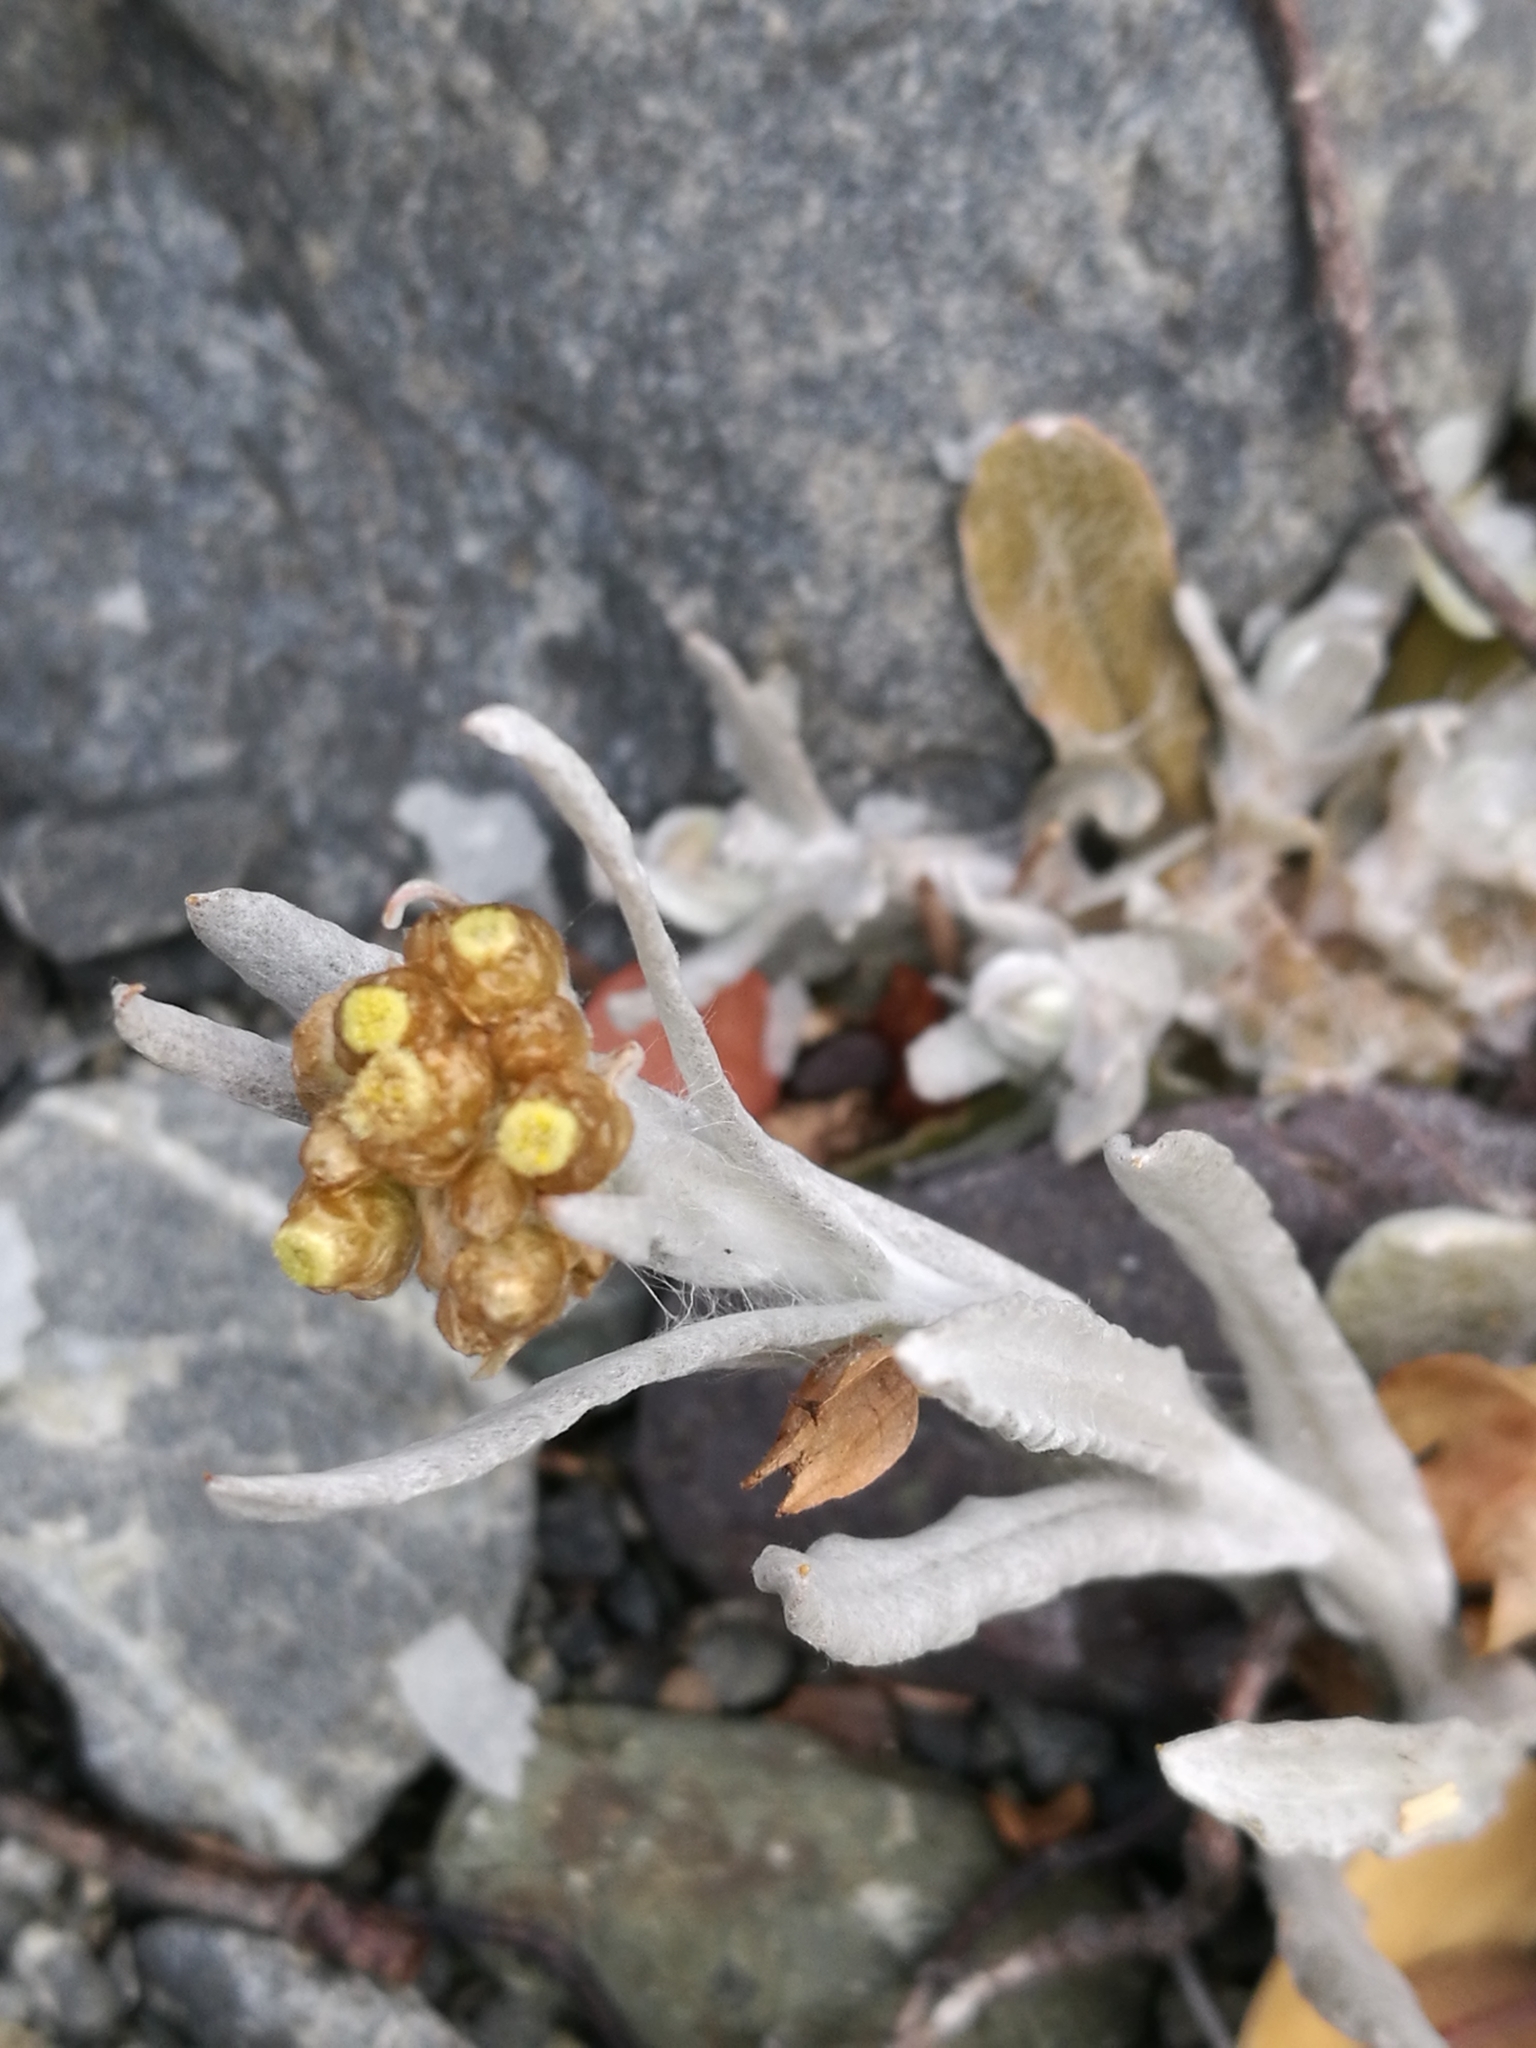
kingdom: Plantae
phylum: Tracheophyta
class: Magnoliopsida
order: Asterales
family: Asteraceae
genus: Helichrysum
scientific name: Helichrysum luteoalbum
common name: Daisy
